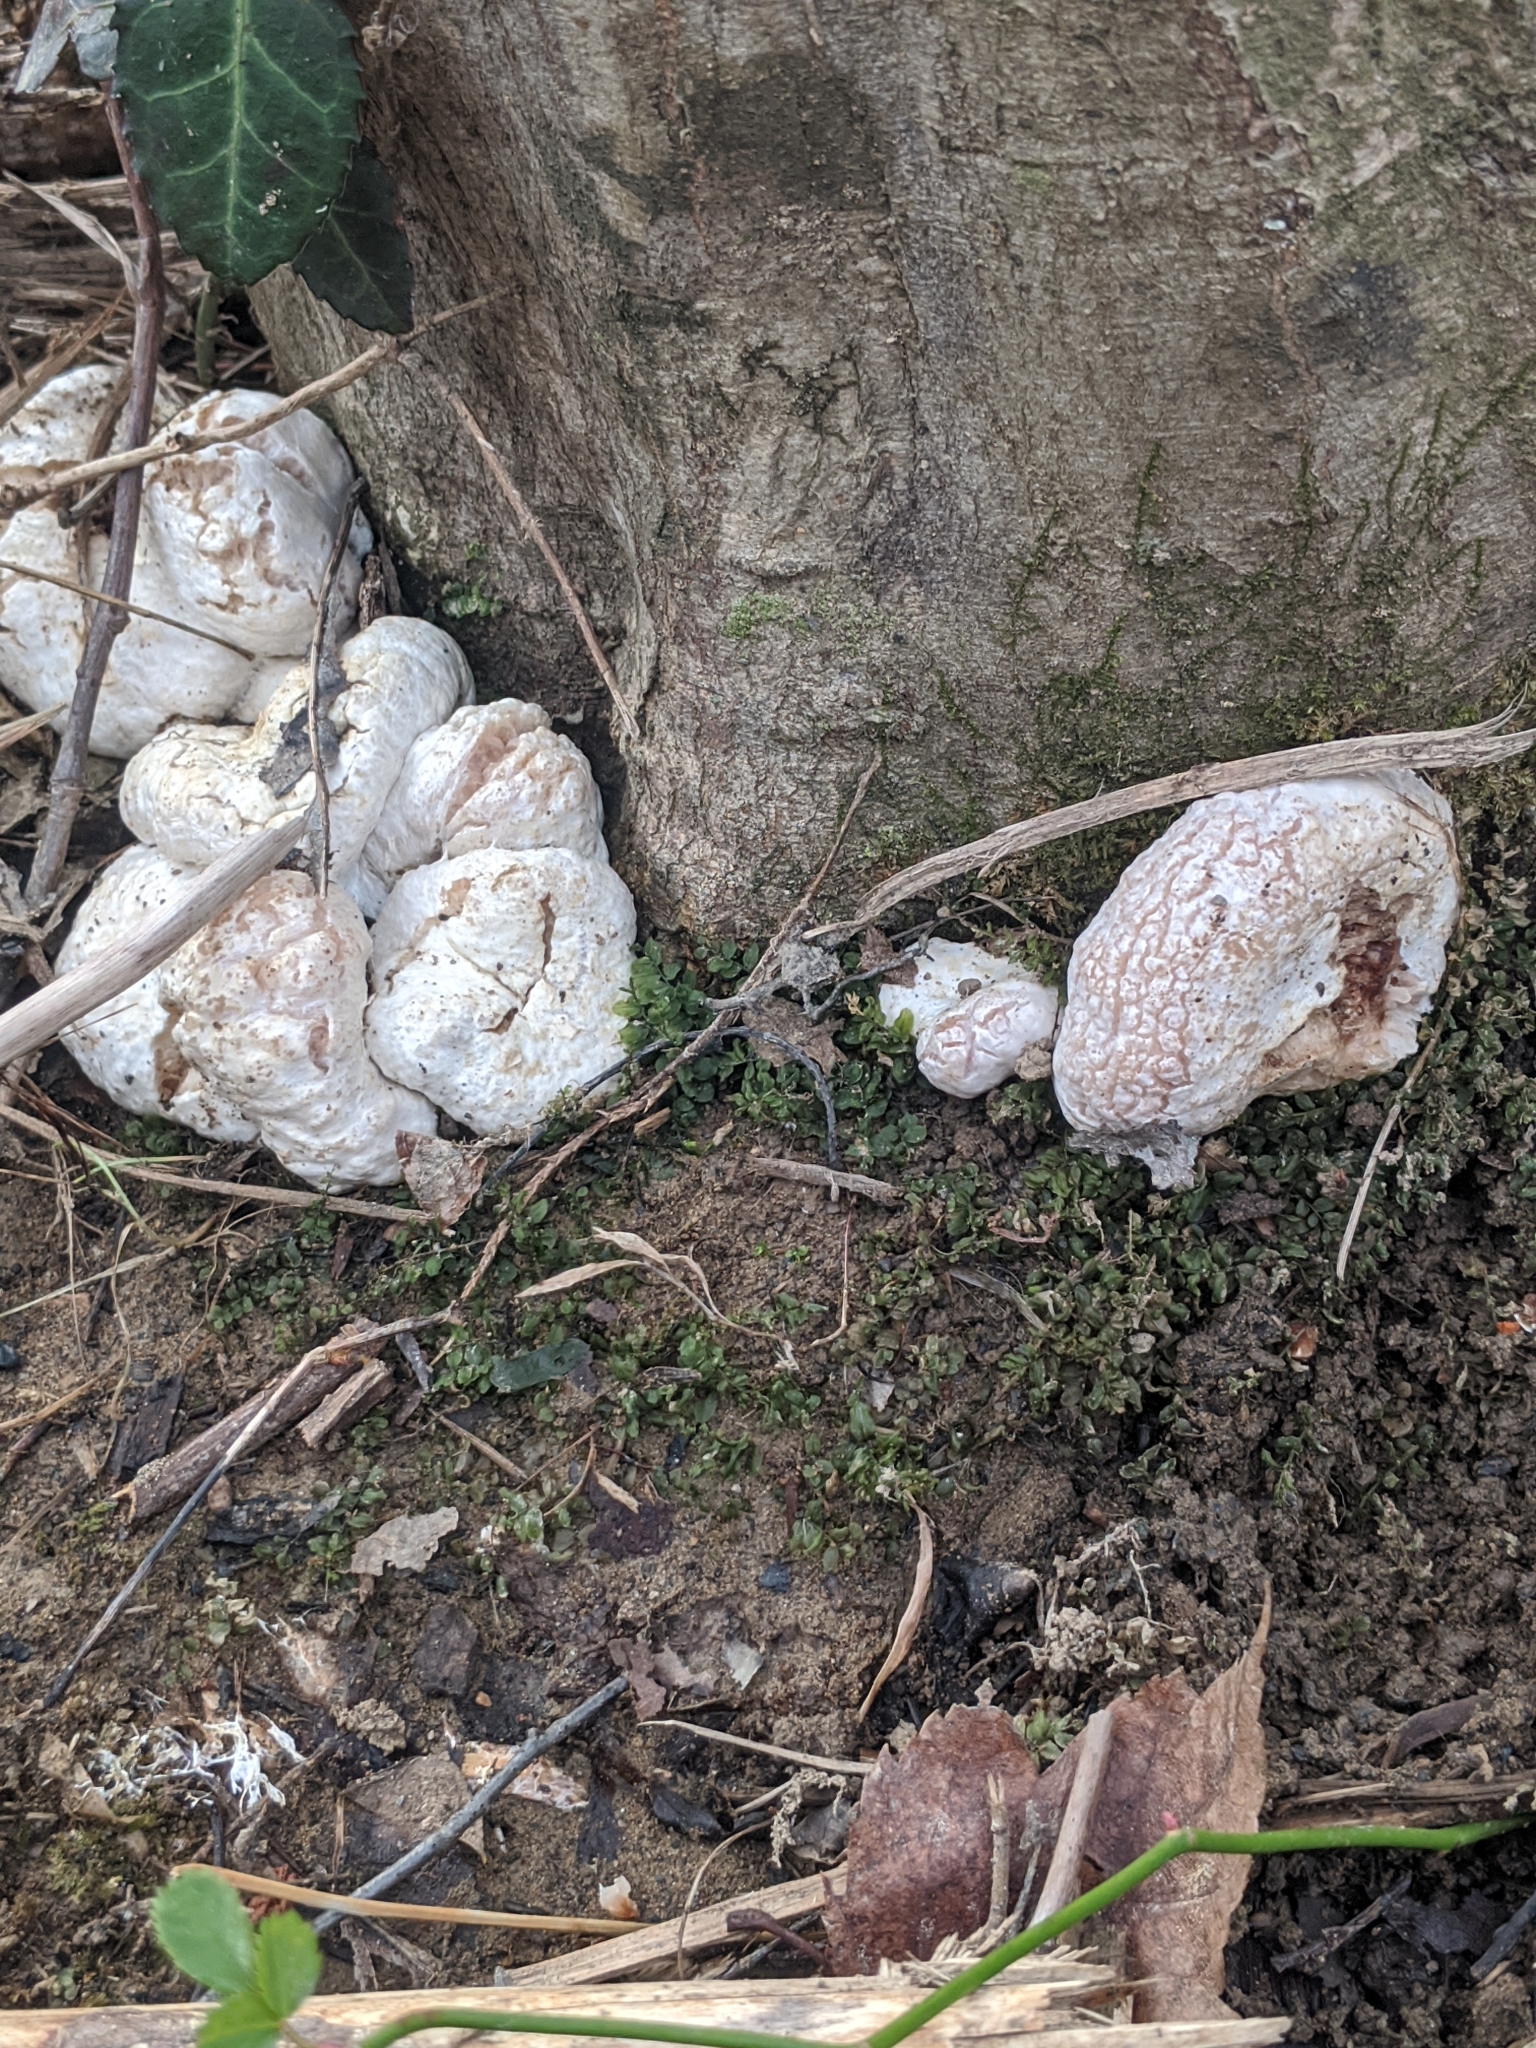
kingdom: Fungi
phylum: Basidiomycota
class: Agaricomycetes
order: Agaricales
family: Entolomataceae
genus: Entoloma
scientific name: Entoloma abortivum
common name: Aborted entoloma
